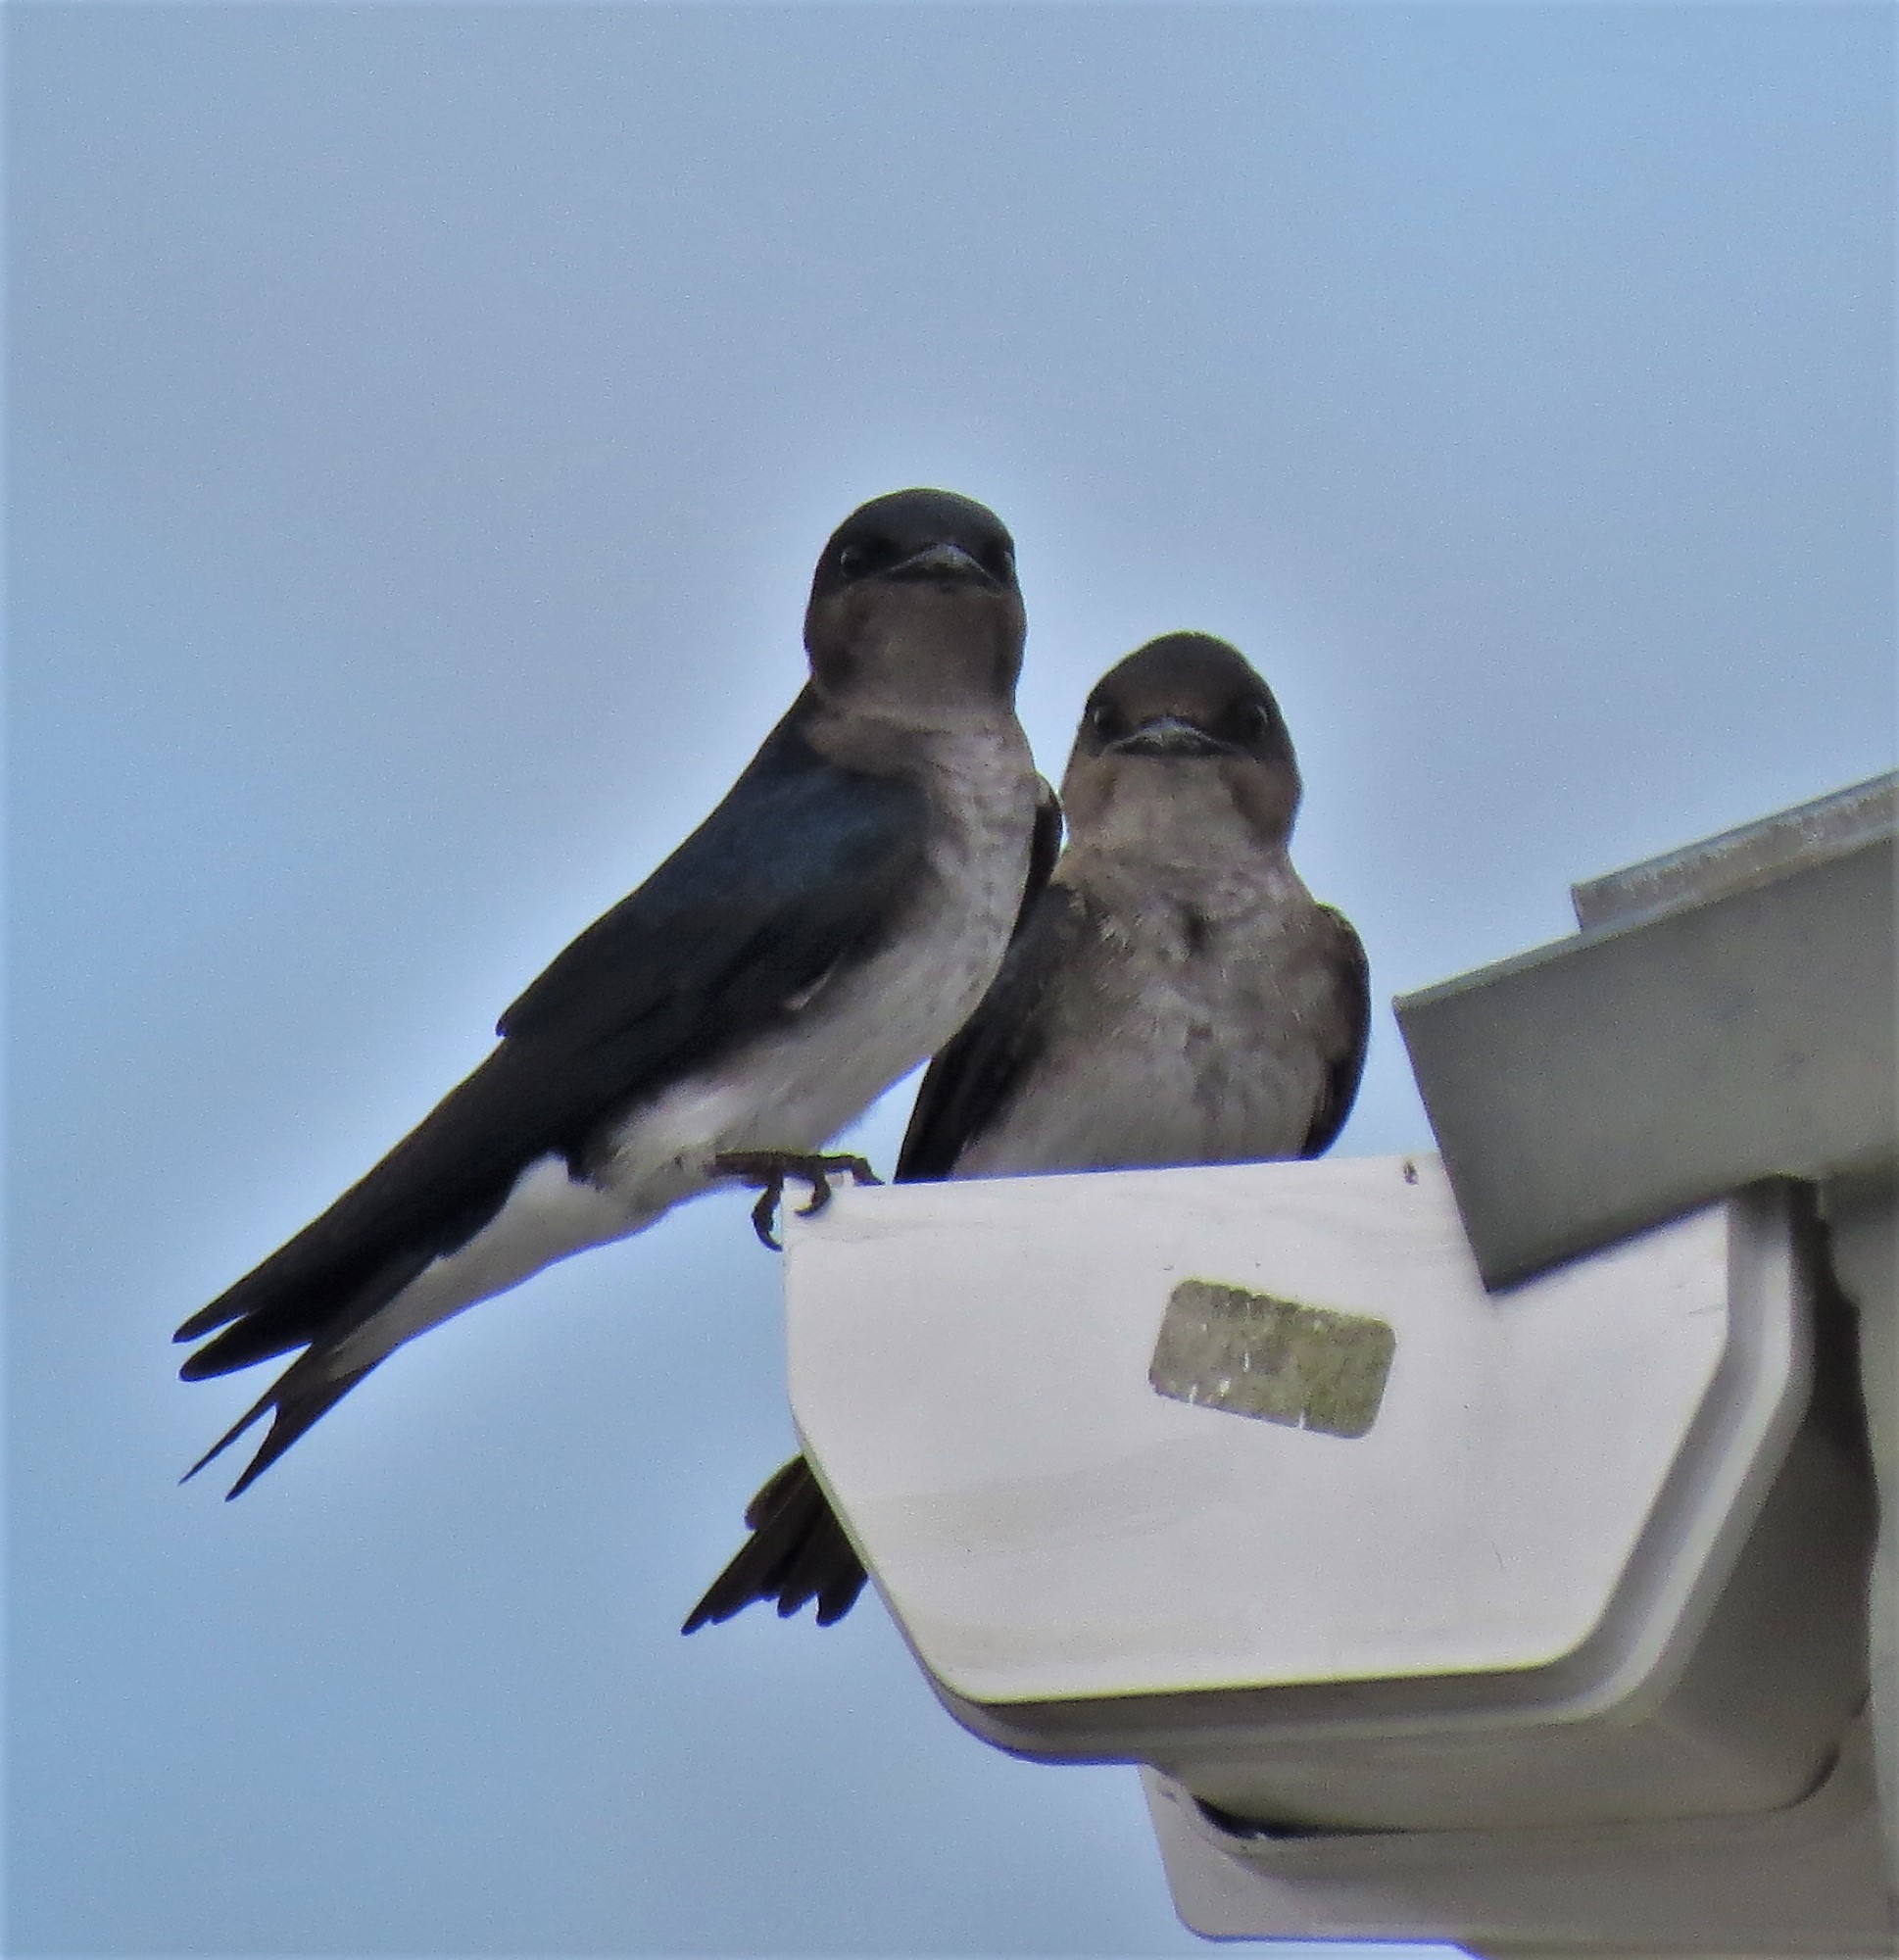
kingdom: Animalia
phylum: Chordata
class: Aves
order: Passeriformes
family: Hirundinidae
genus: Progne
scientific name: Progne chalybea
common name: Grey-breasted martin
